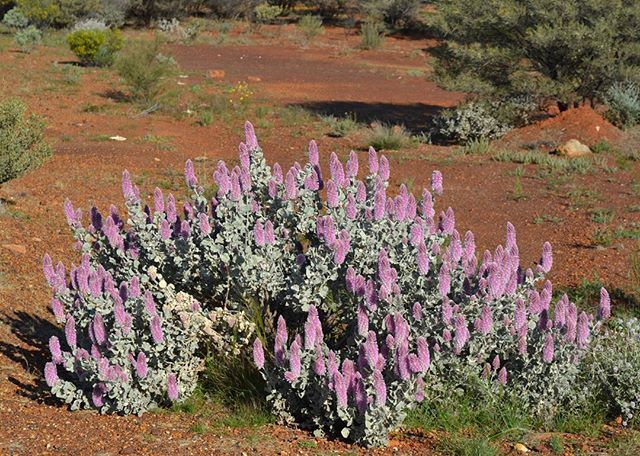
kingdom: Plantae
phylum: Tracheophyta
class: Magnoliopsida
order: Caryophyllales
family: Amaranthaceae
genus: Ptilotus
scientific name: Ptilotus rotundifolius
